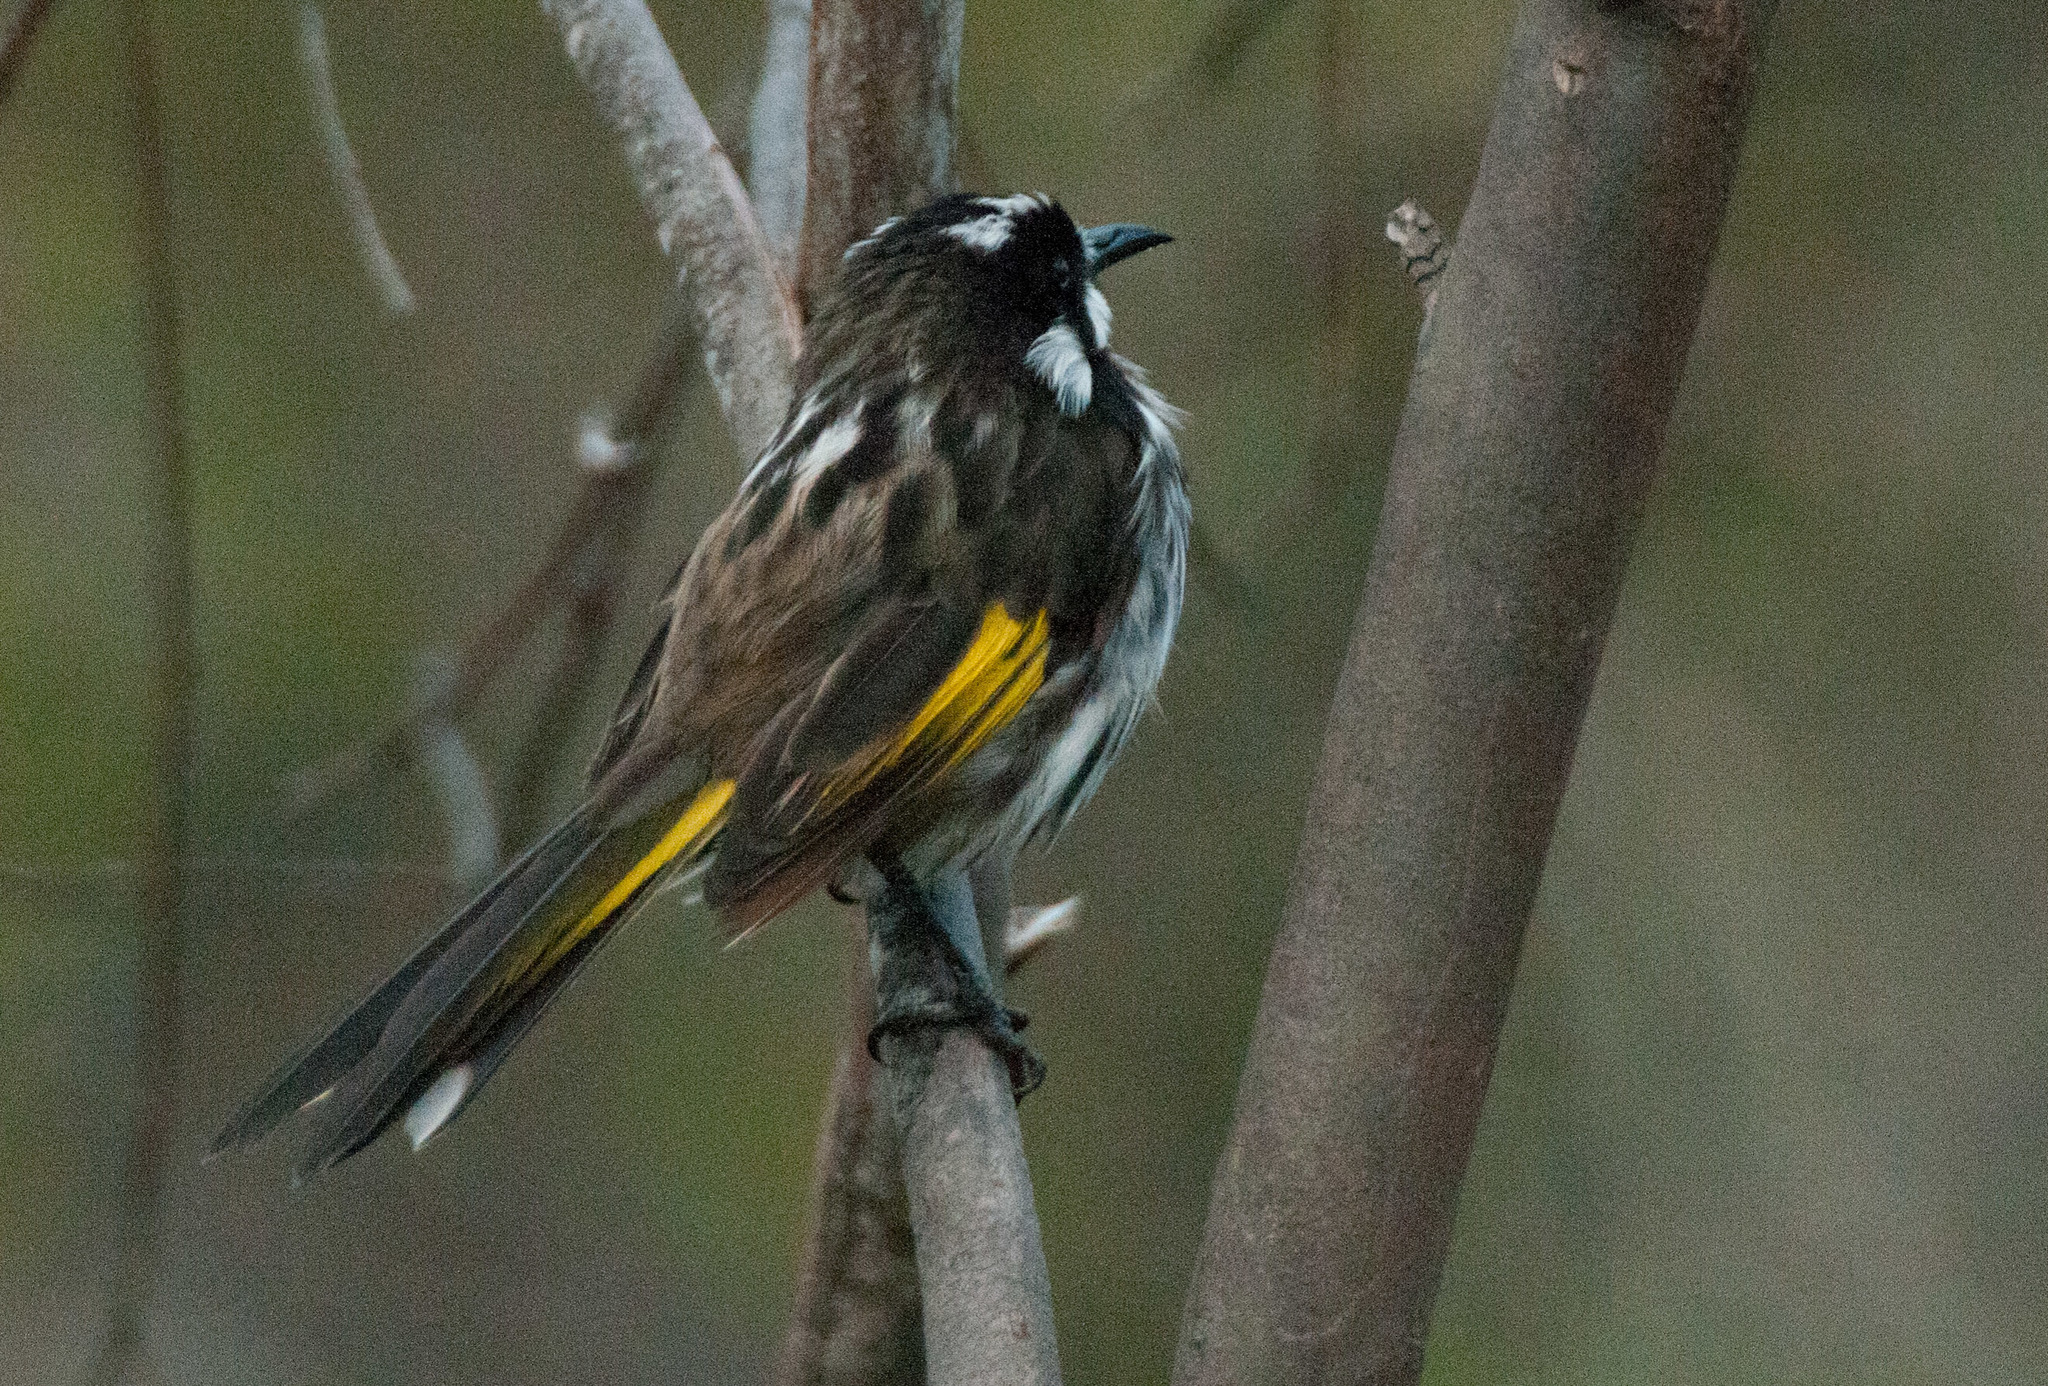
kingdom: Animalia
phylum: Chordata
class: Aves
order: Passeriformes
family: Meliphagidae
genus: Phylidonyris
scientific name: Phylidonyris novaehollandiae
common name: New holland honeyeater
